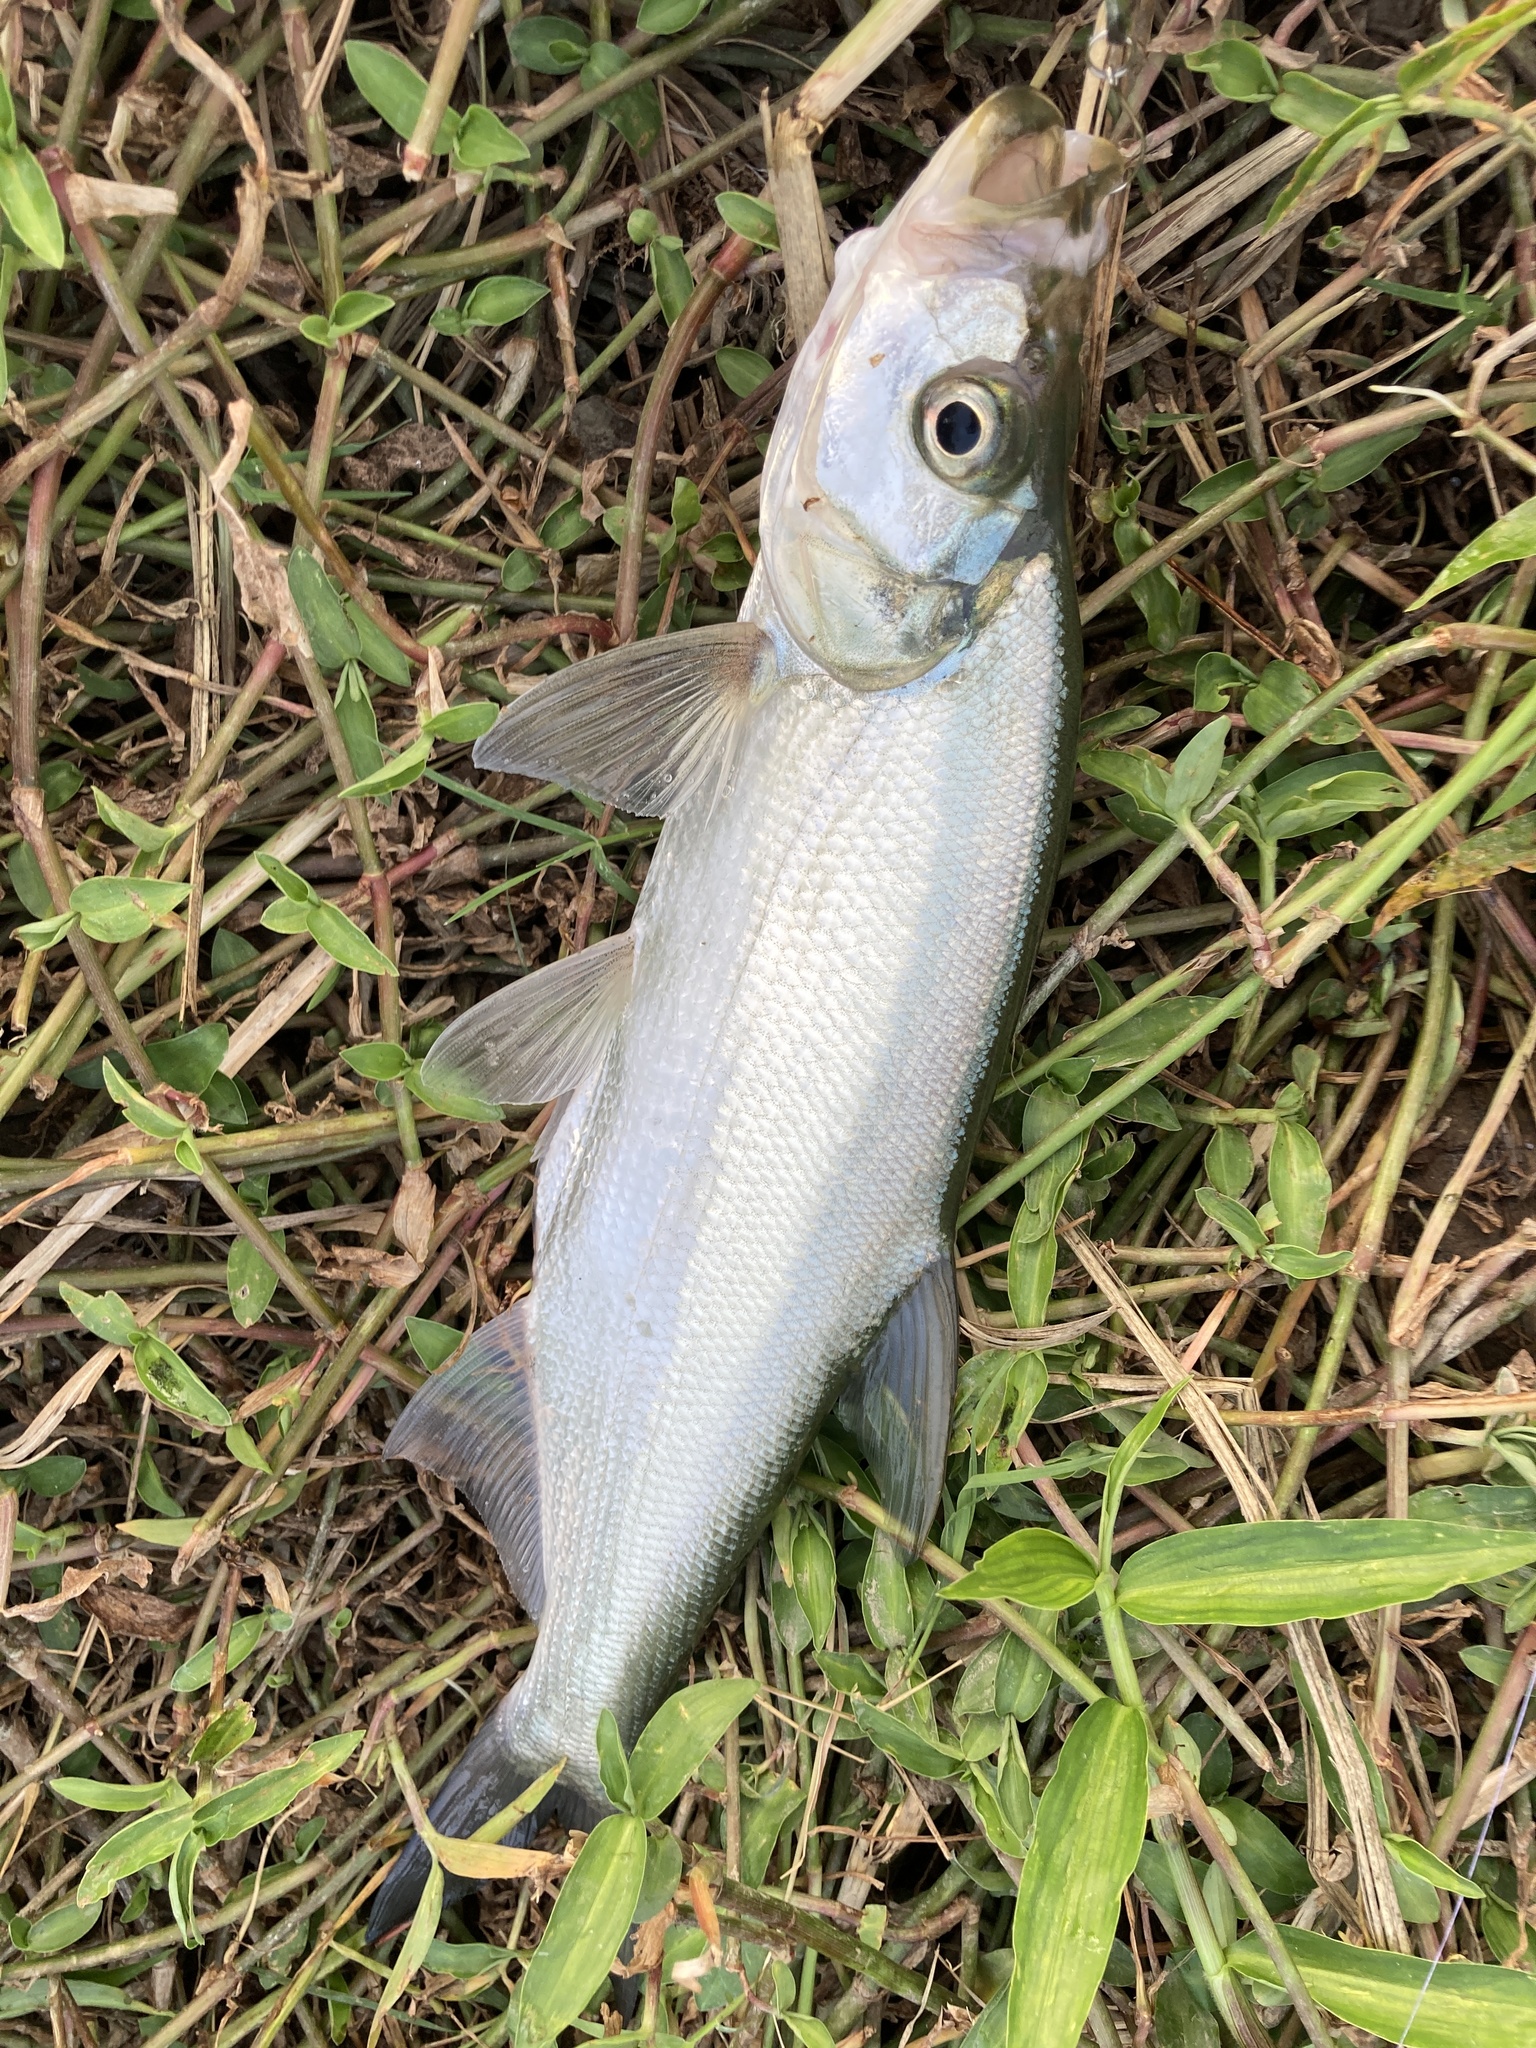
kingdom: Animalia
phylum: Chordata
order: Cypriniformes
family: Cyprinidae
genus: Culter
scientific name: Culter alburnus
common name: Grass carp
